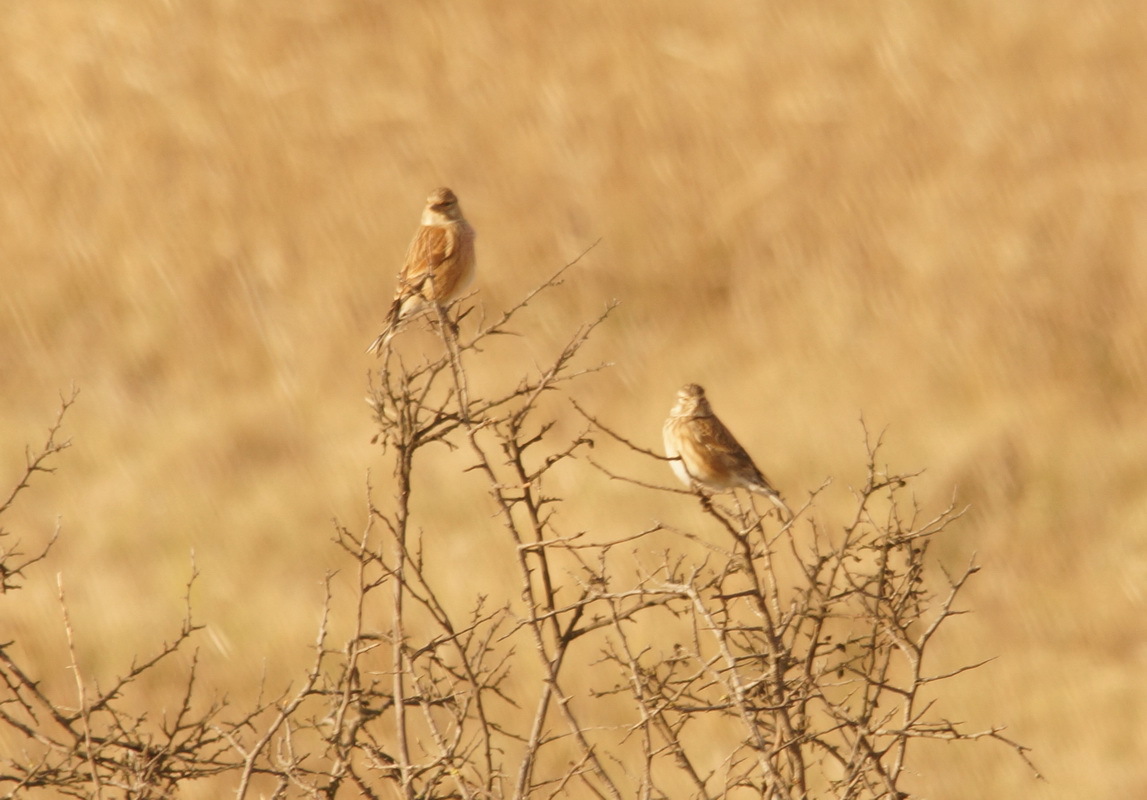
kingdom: Animalia
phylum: Chordata
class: Aves
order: Passeriformes
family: Fringillidae
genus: Linaria
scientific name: Linaria cannabina
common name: Common linnet
